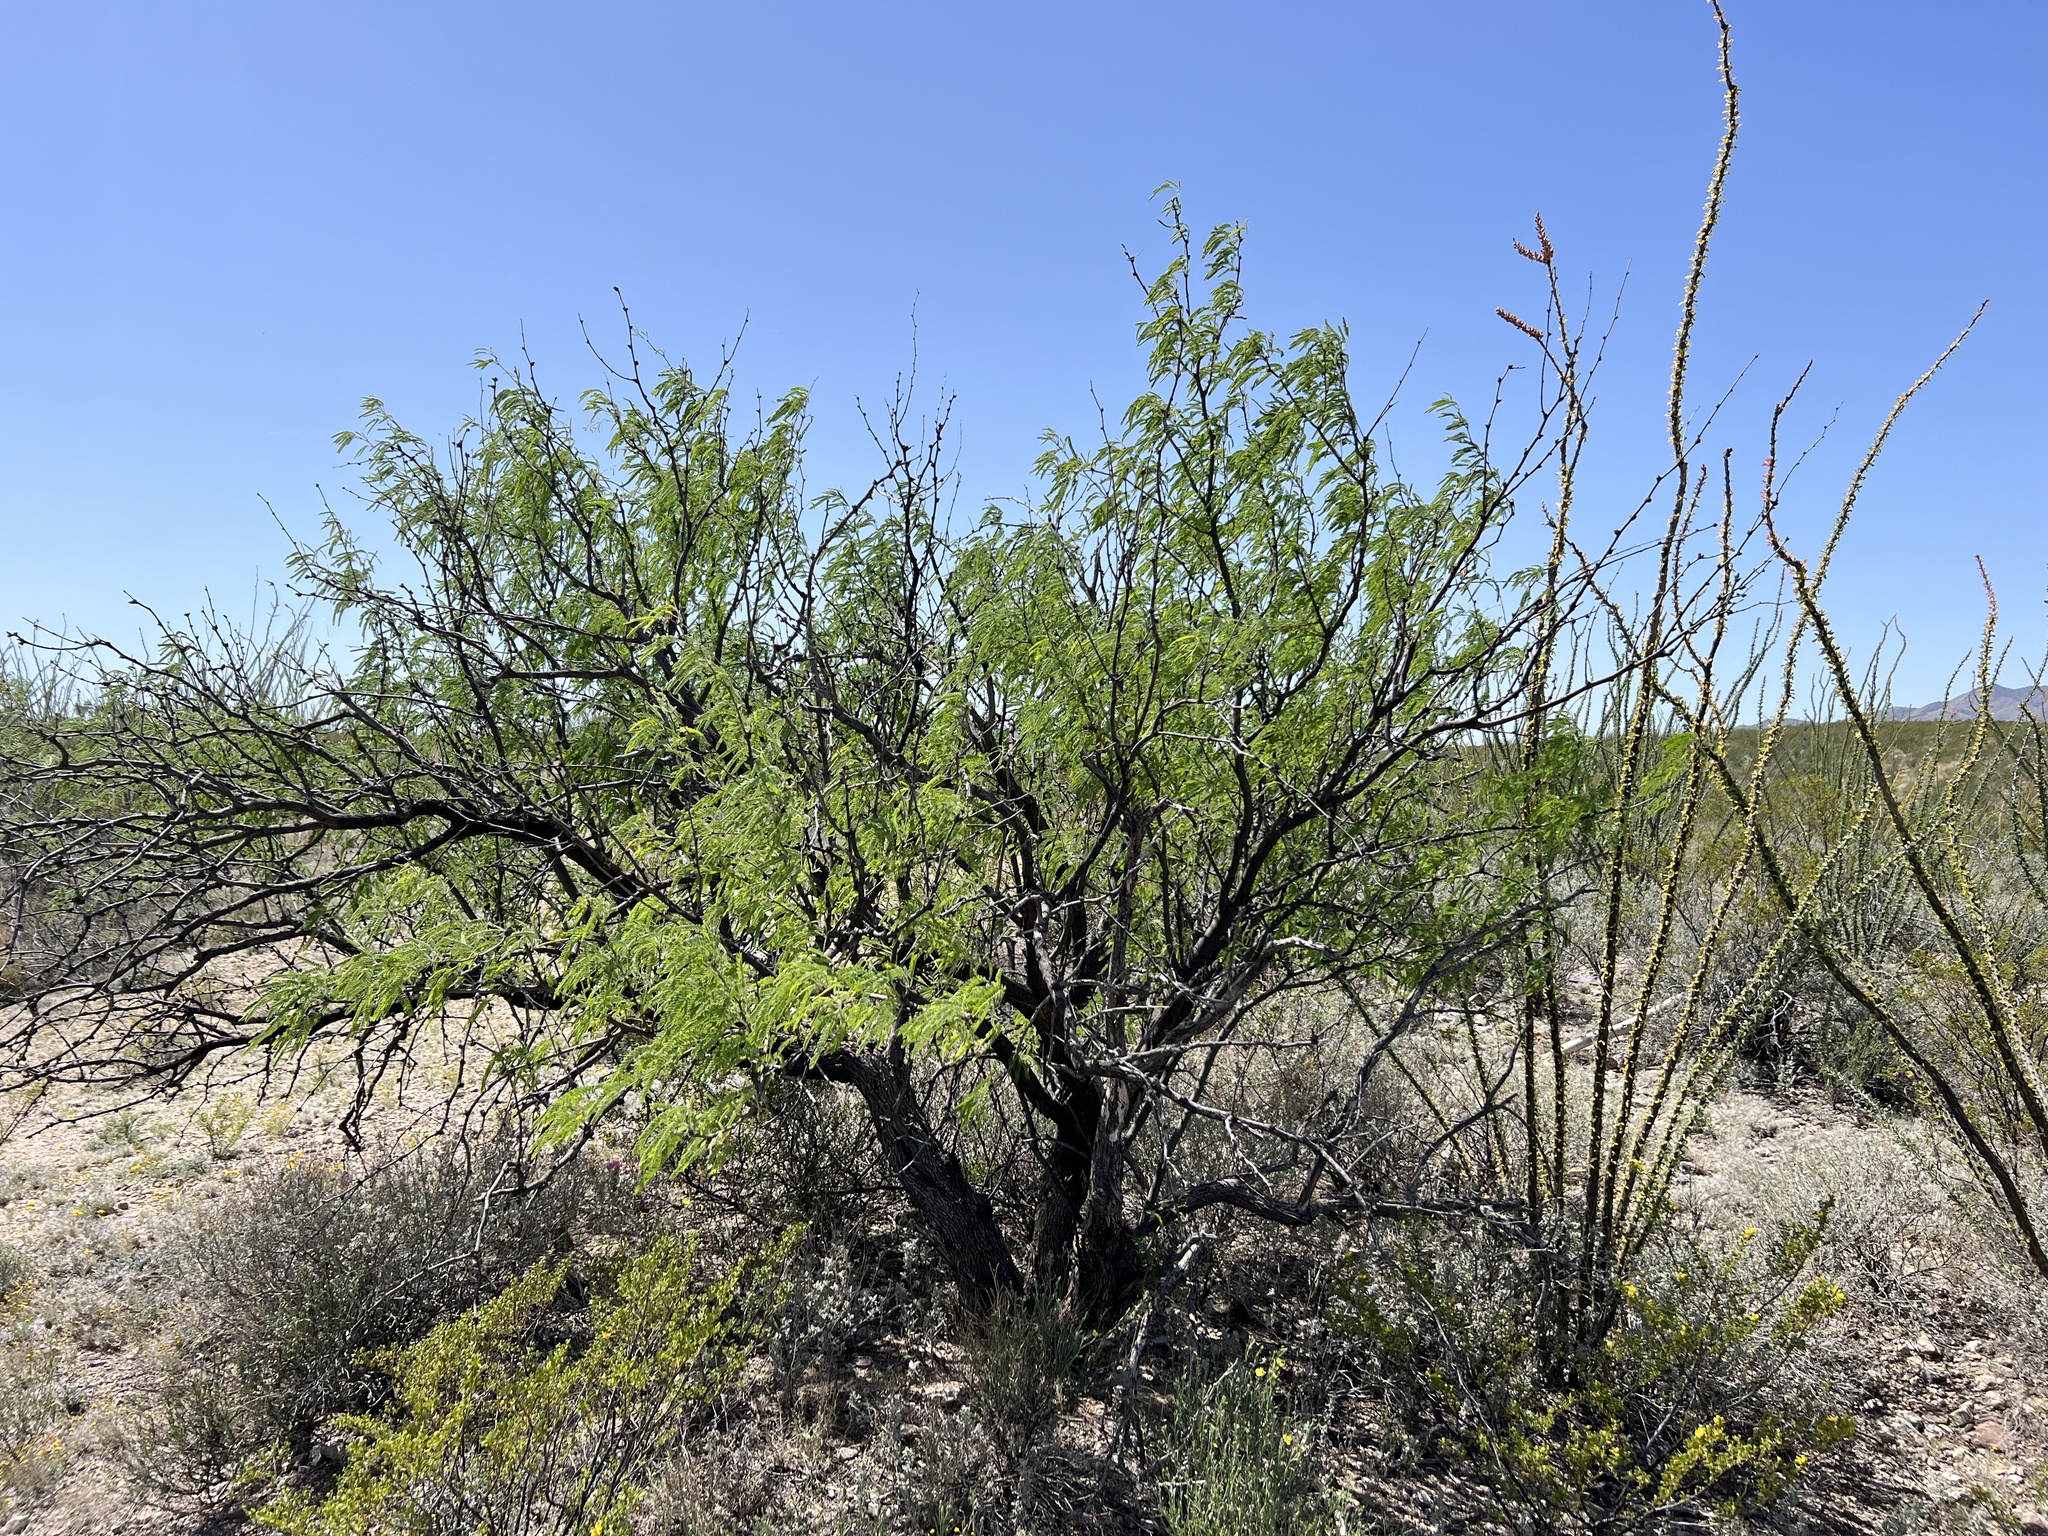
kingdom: Plantae
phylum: Tracheophyta
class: Magnoliopsida
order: Fabales
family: Fabaceae
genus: Prosopis
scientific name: Prosopis velutina
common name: Velvet mesquite
